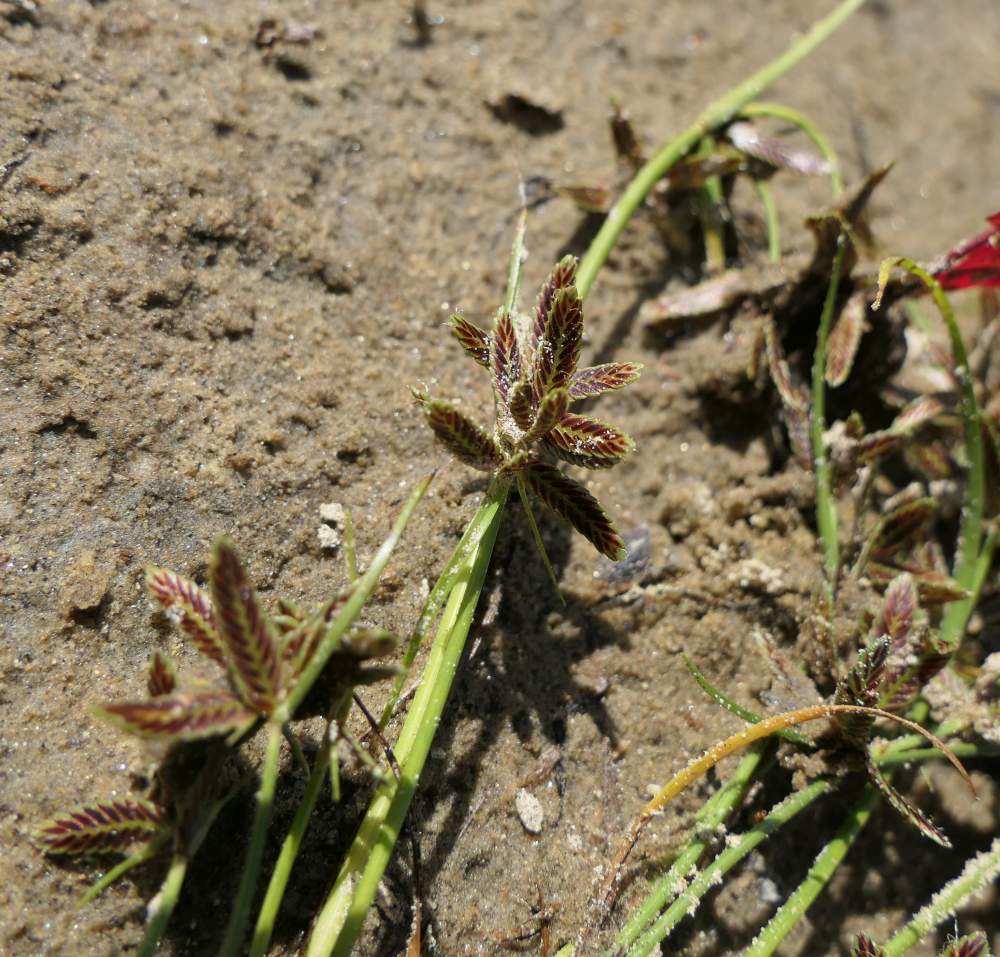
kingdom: Plantae
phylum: Tracheophyta
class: Liliopsida
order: Poales
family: Cyperaceae
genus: Cyperus
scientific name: Cyperus bipartitus
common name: Brook flatsedge
